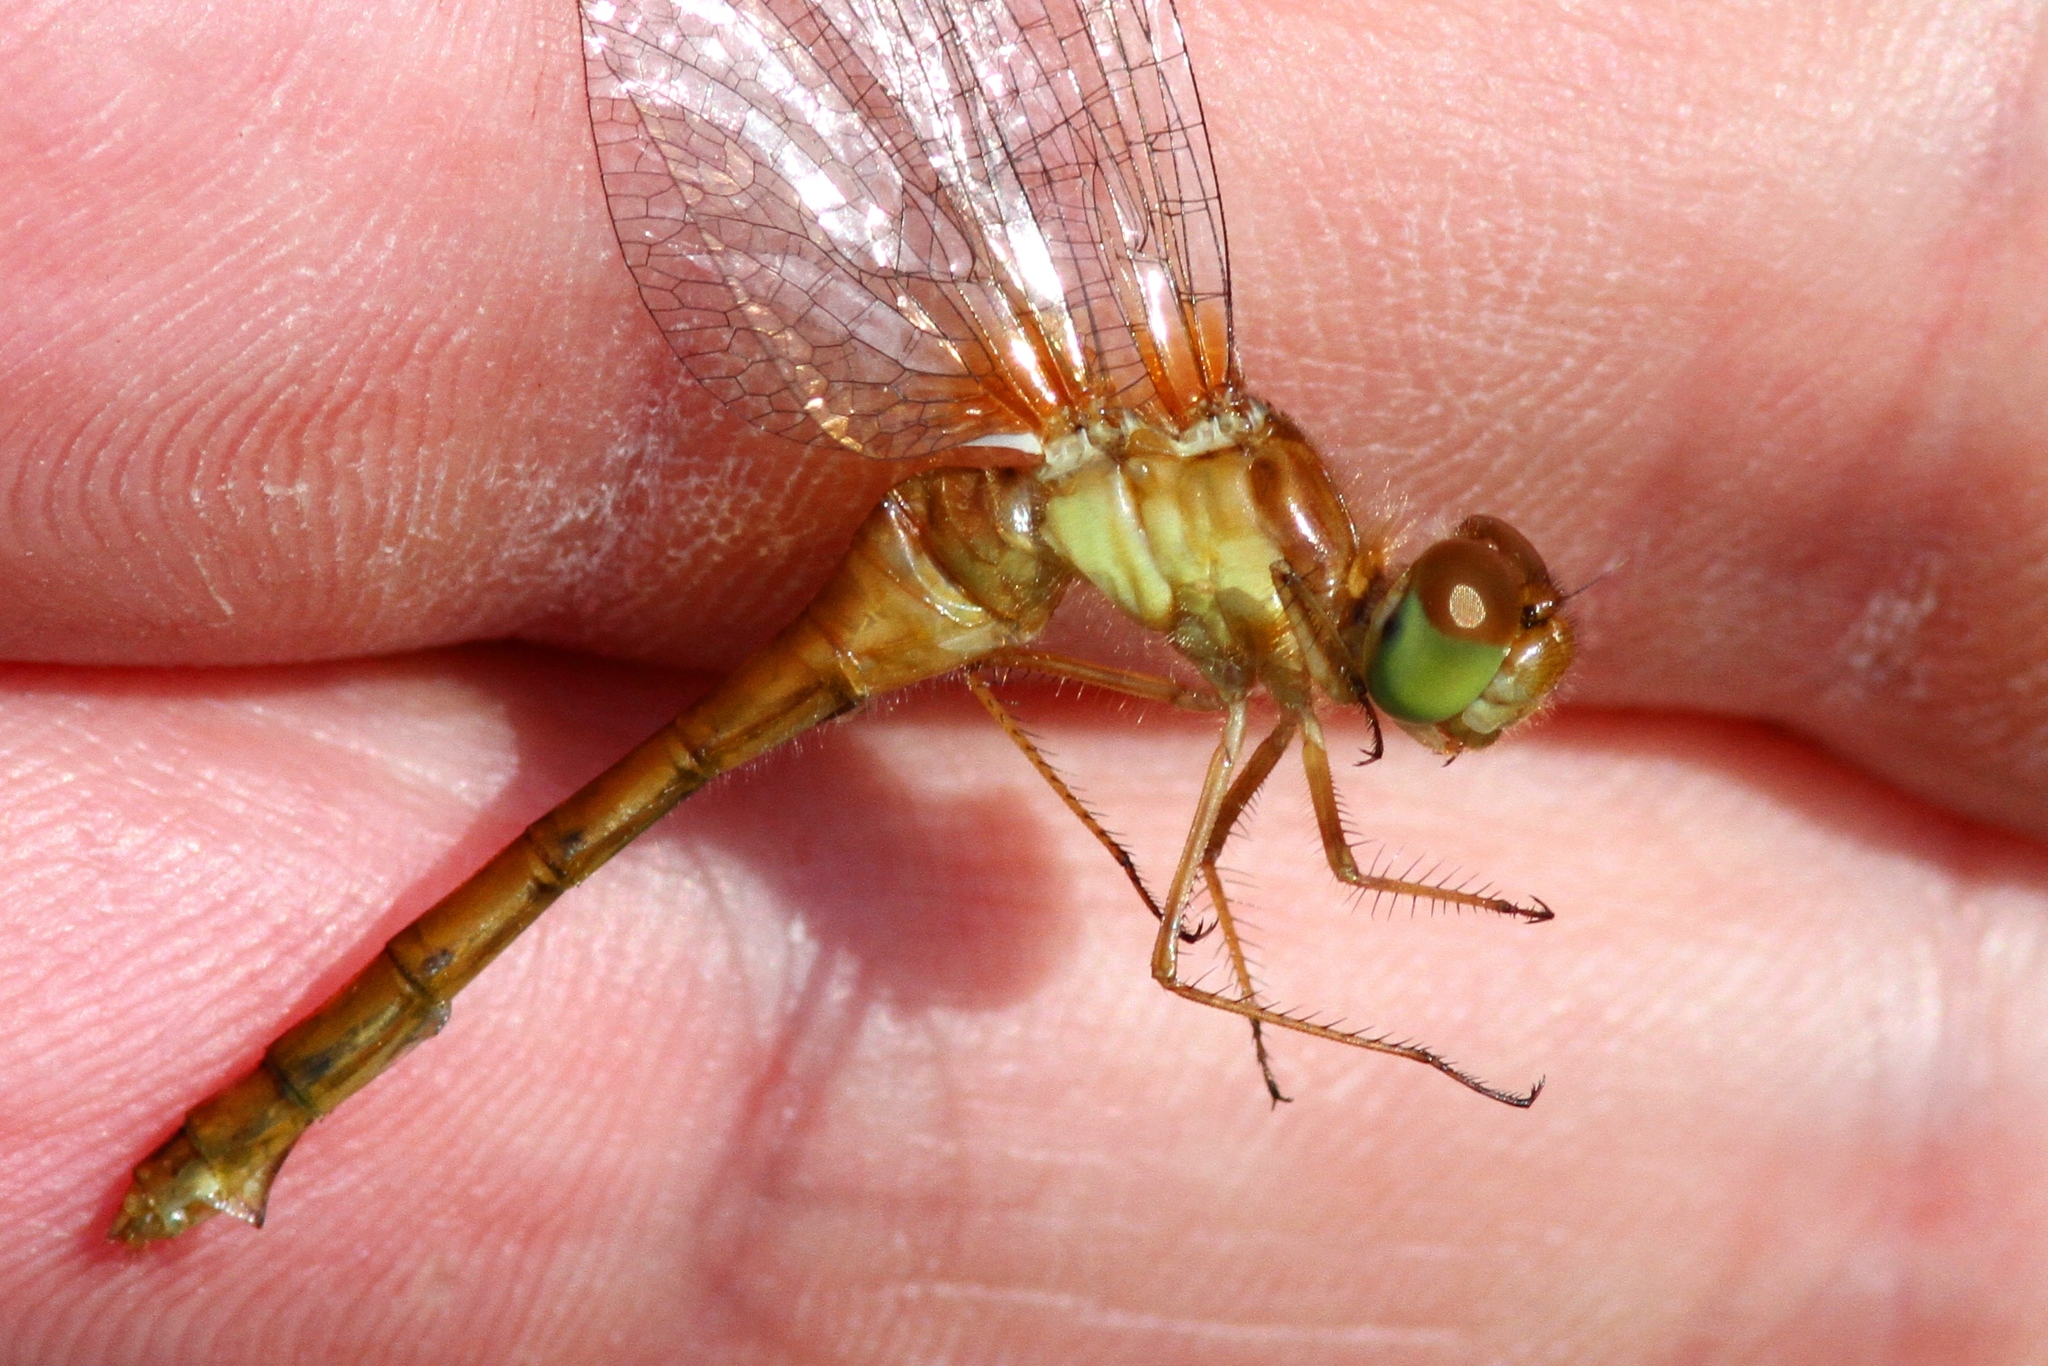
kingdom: Animalia
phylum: Arthropoda
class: Insecta
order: Odonata
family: Libellulidae
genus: Sympetrum
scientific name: Sympetrum vicinum
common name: Autumn meadowhawk
